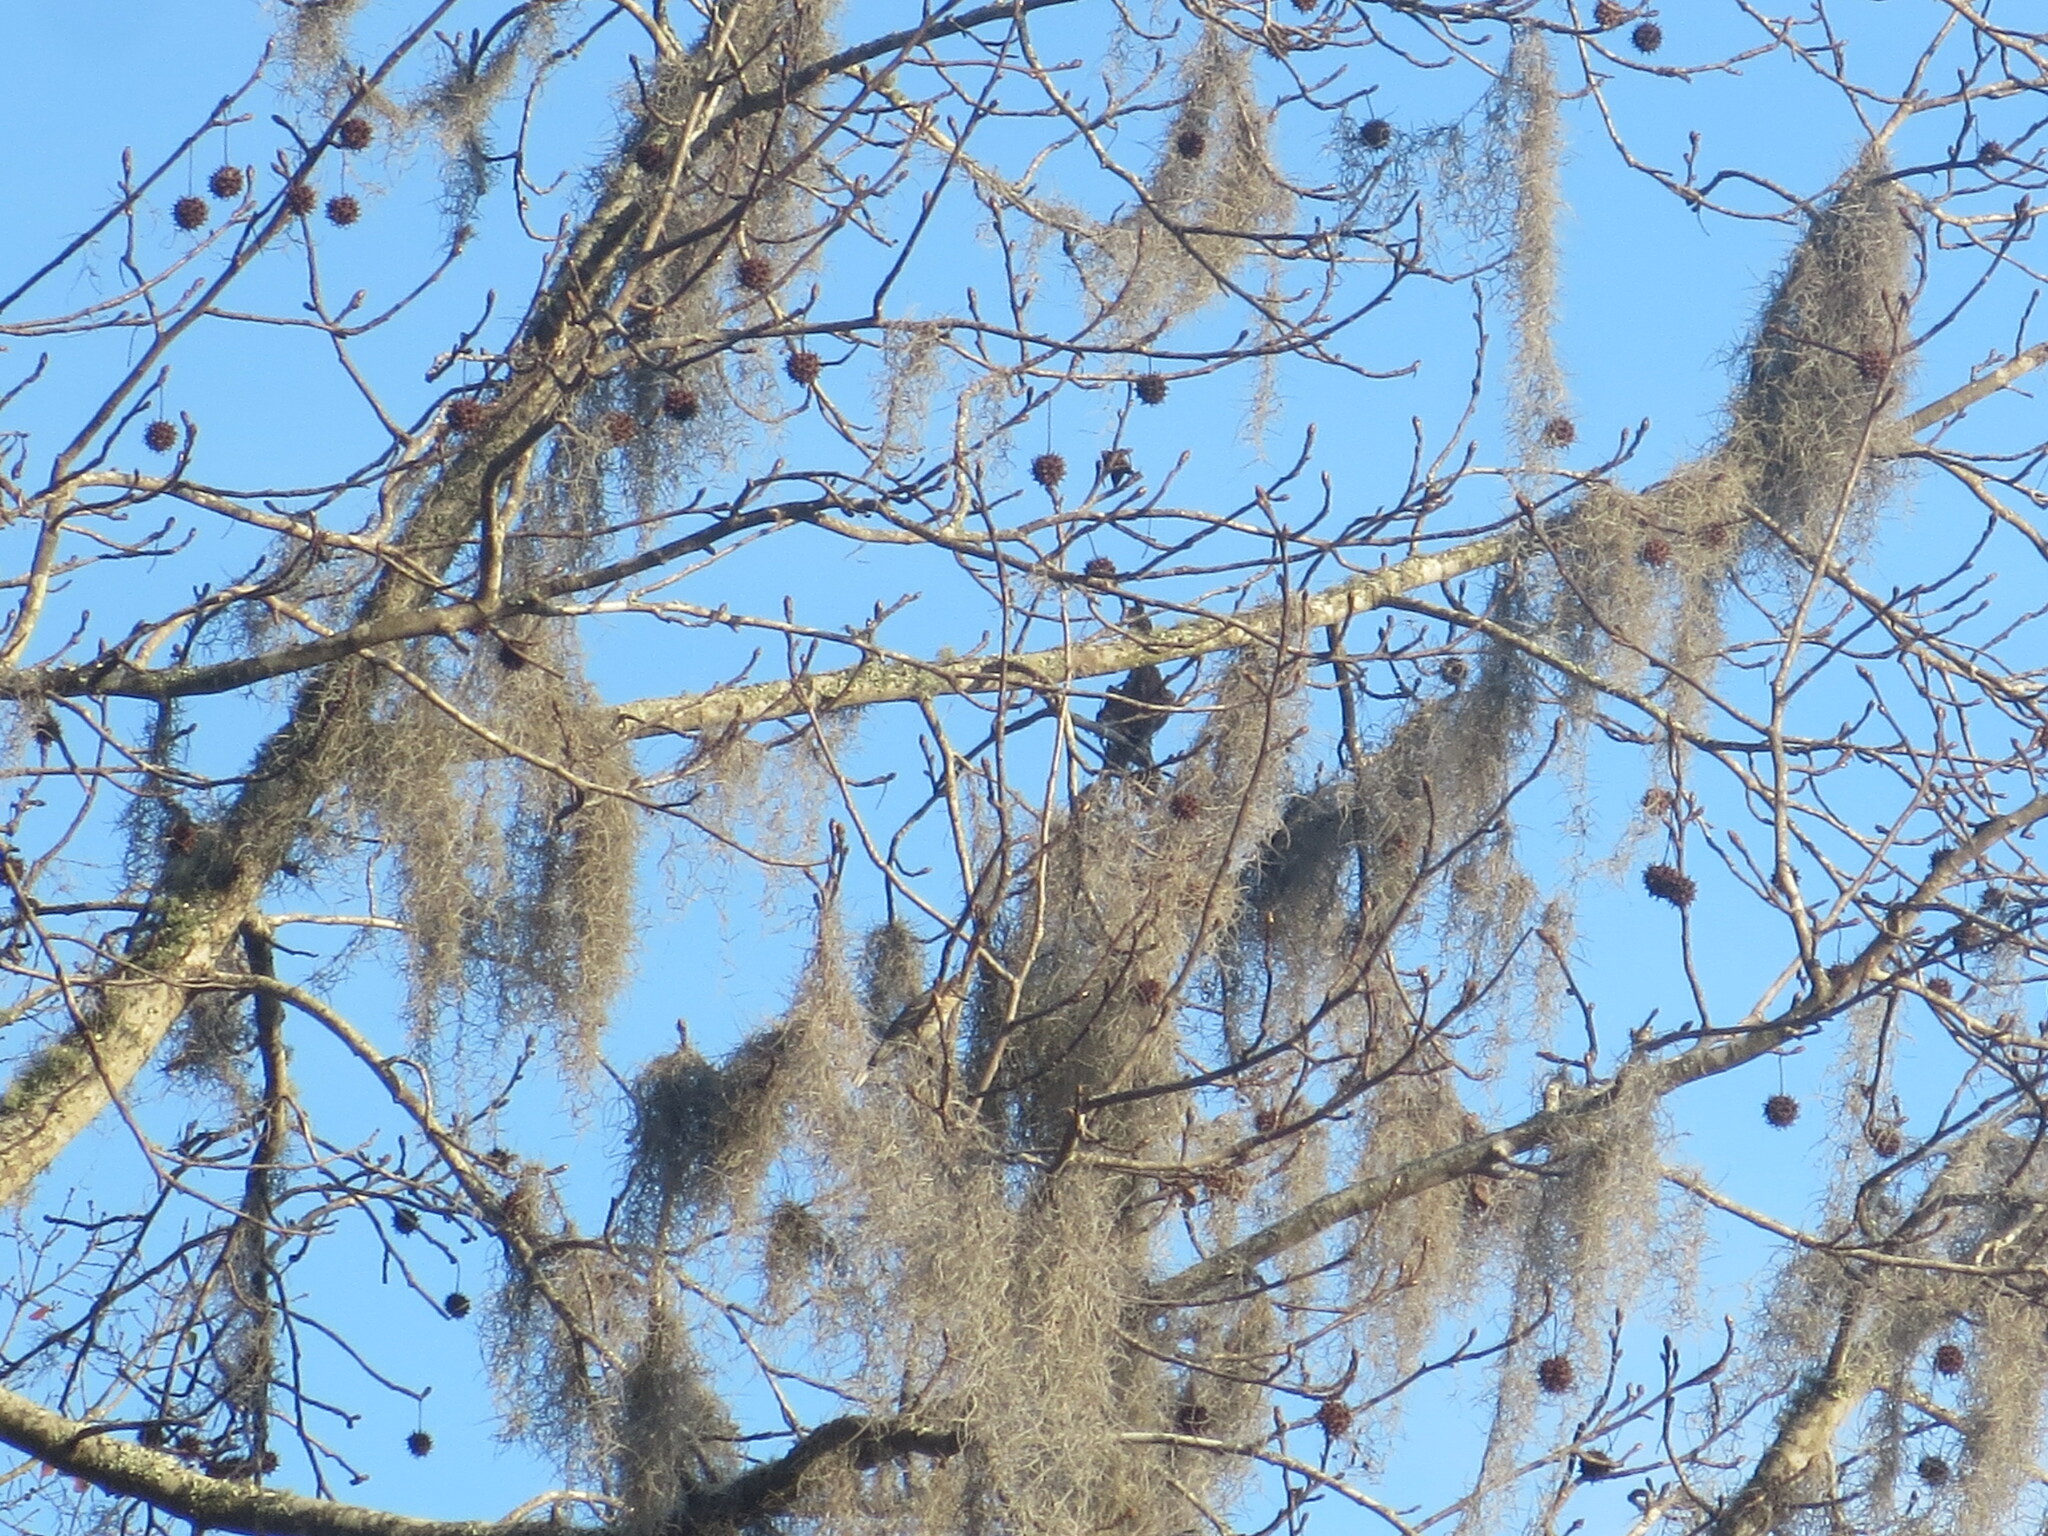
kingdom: Plantae
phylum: Tracheophyta
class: Magnoliopsida
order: Saxifragales
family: Altingiaceae
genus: Liquidambar
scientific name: Liquidambar styraciflua
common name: Sweet gum
